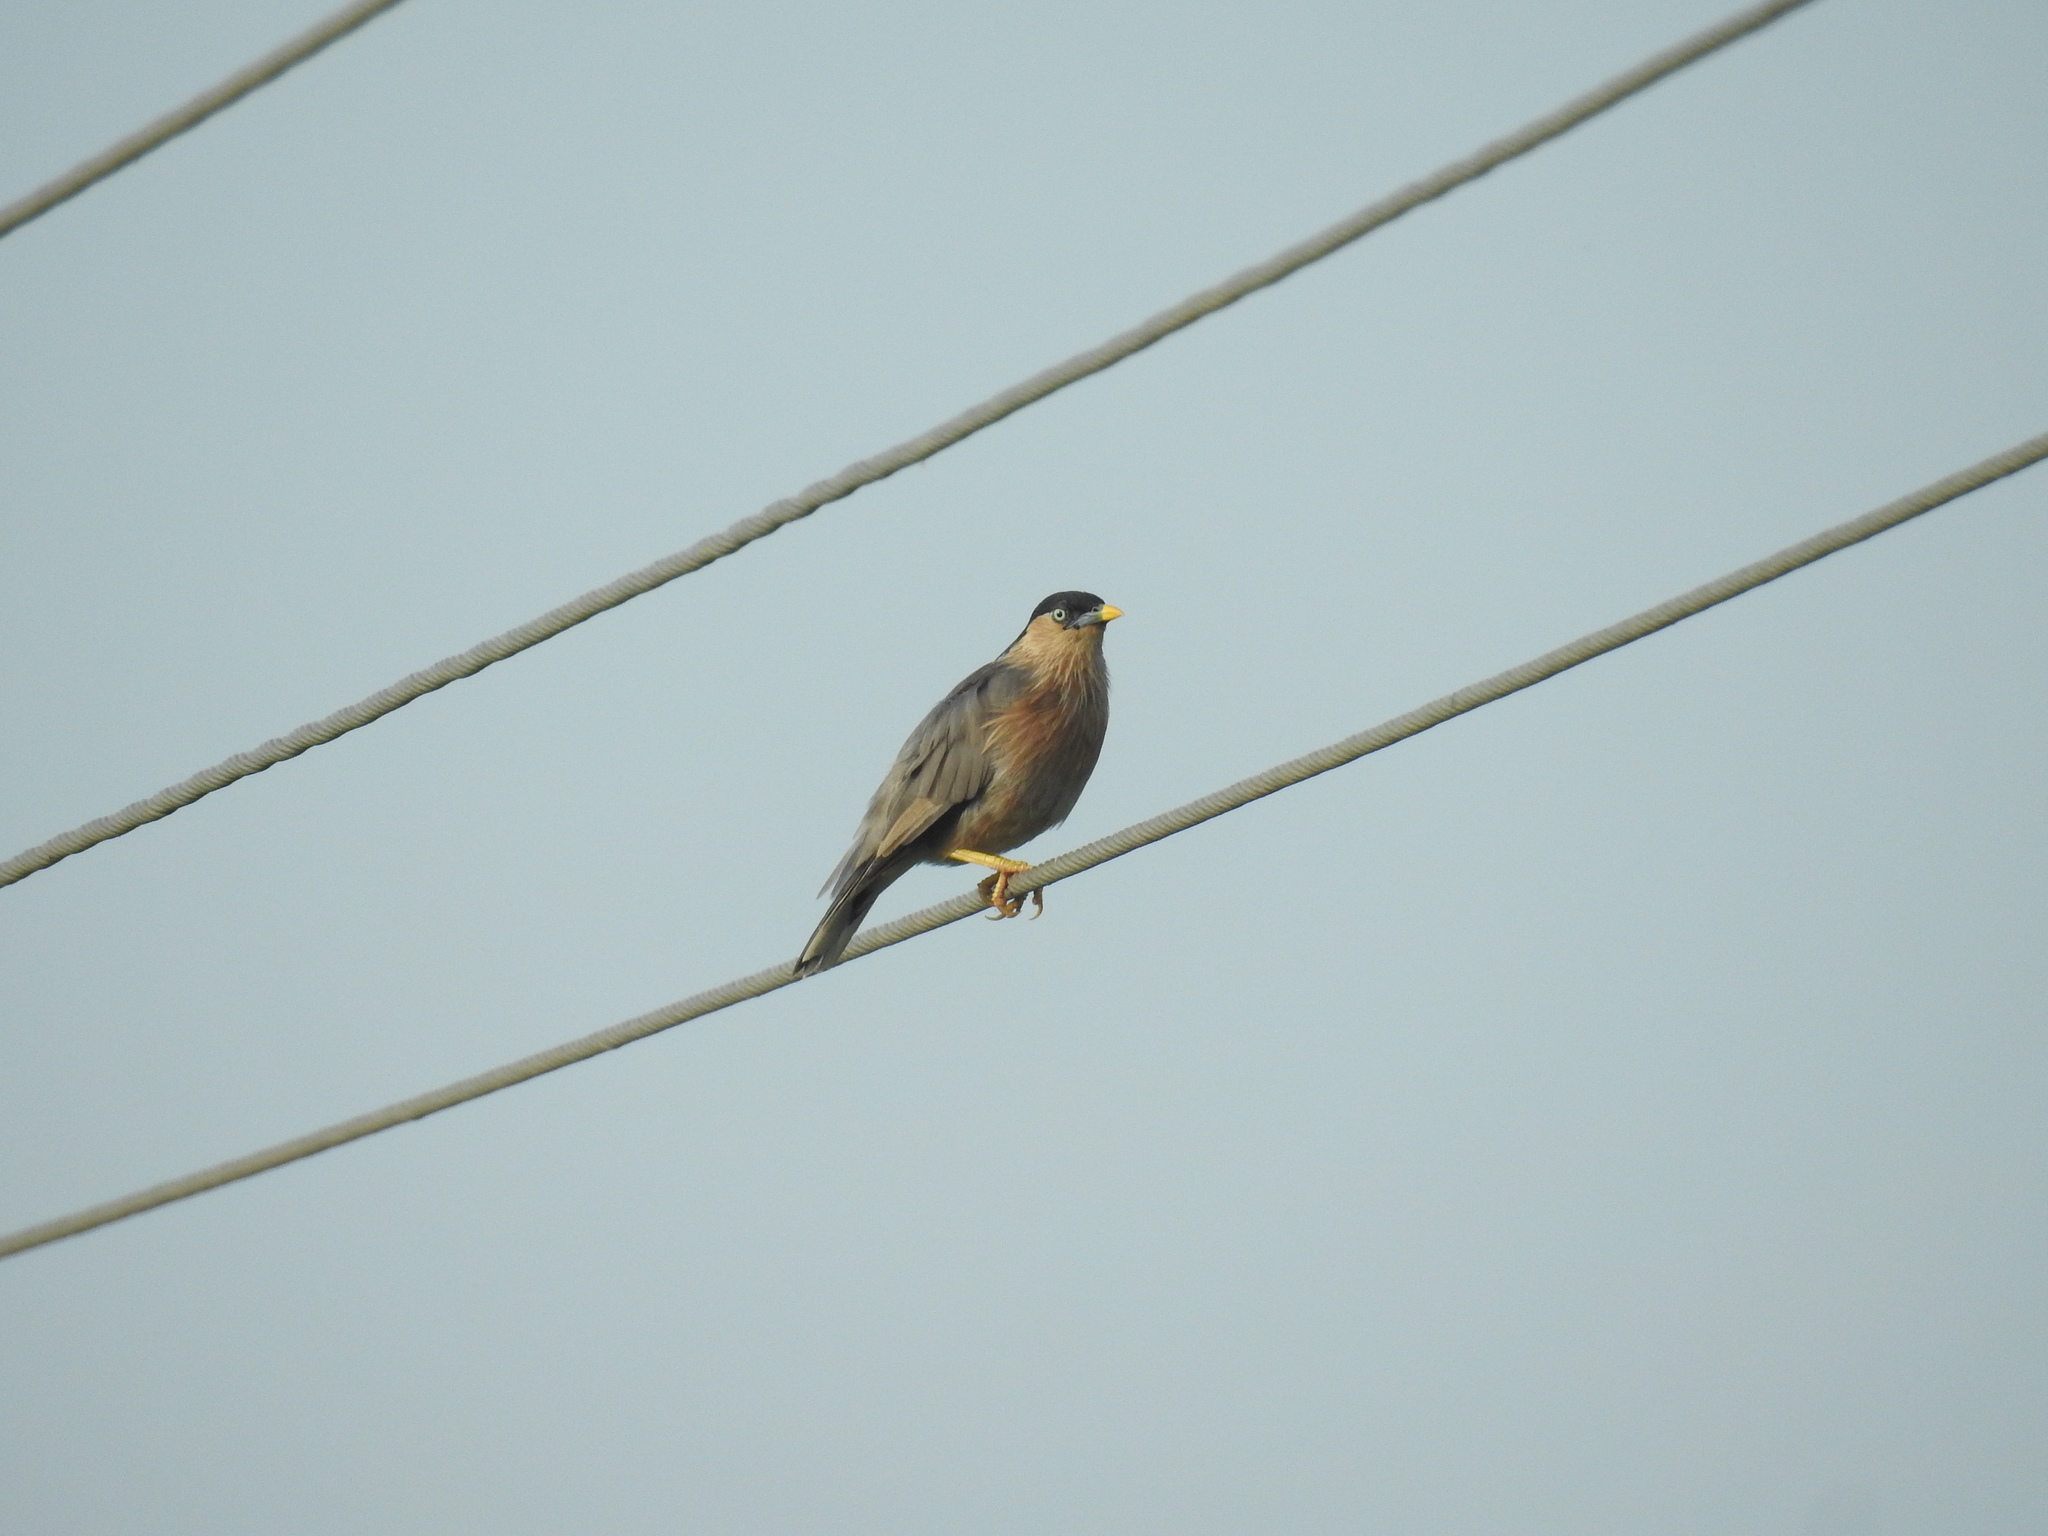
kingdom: Animalia
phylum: Chordata
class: Aves
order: Passeriformes
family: Sturnidae
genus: Sturnia
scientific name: Sturnia pagodarum
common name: Brahminy starling
